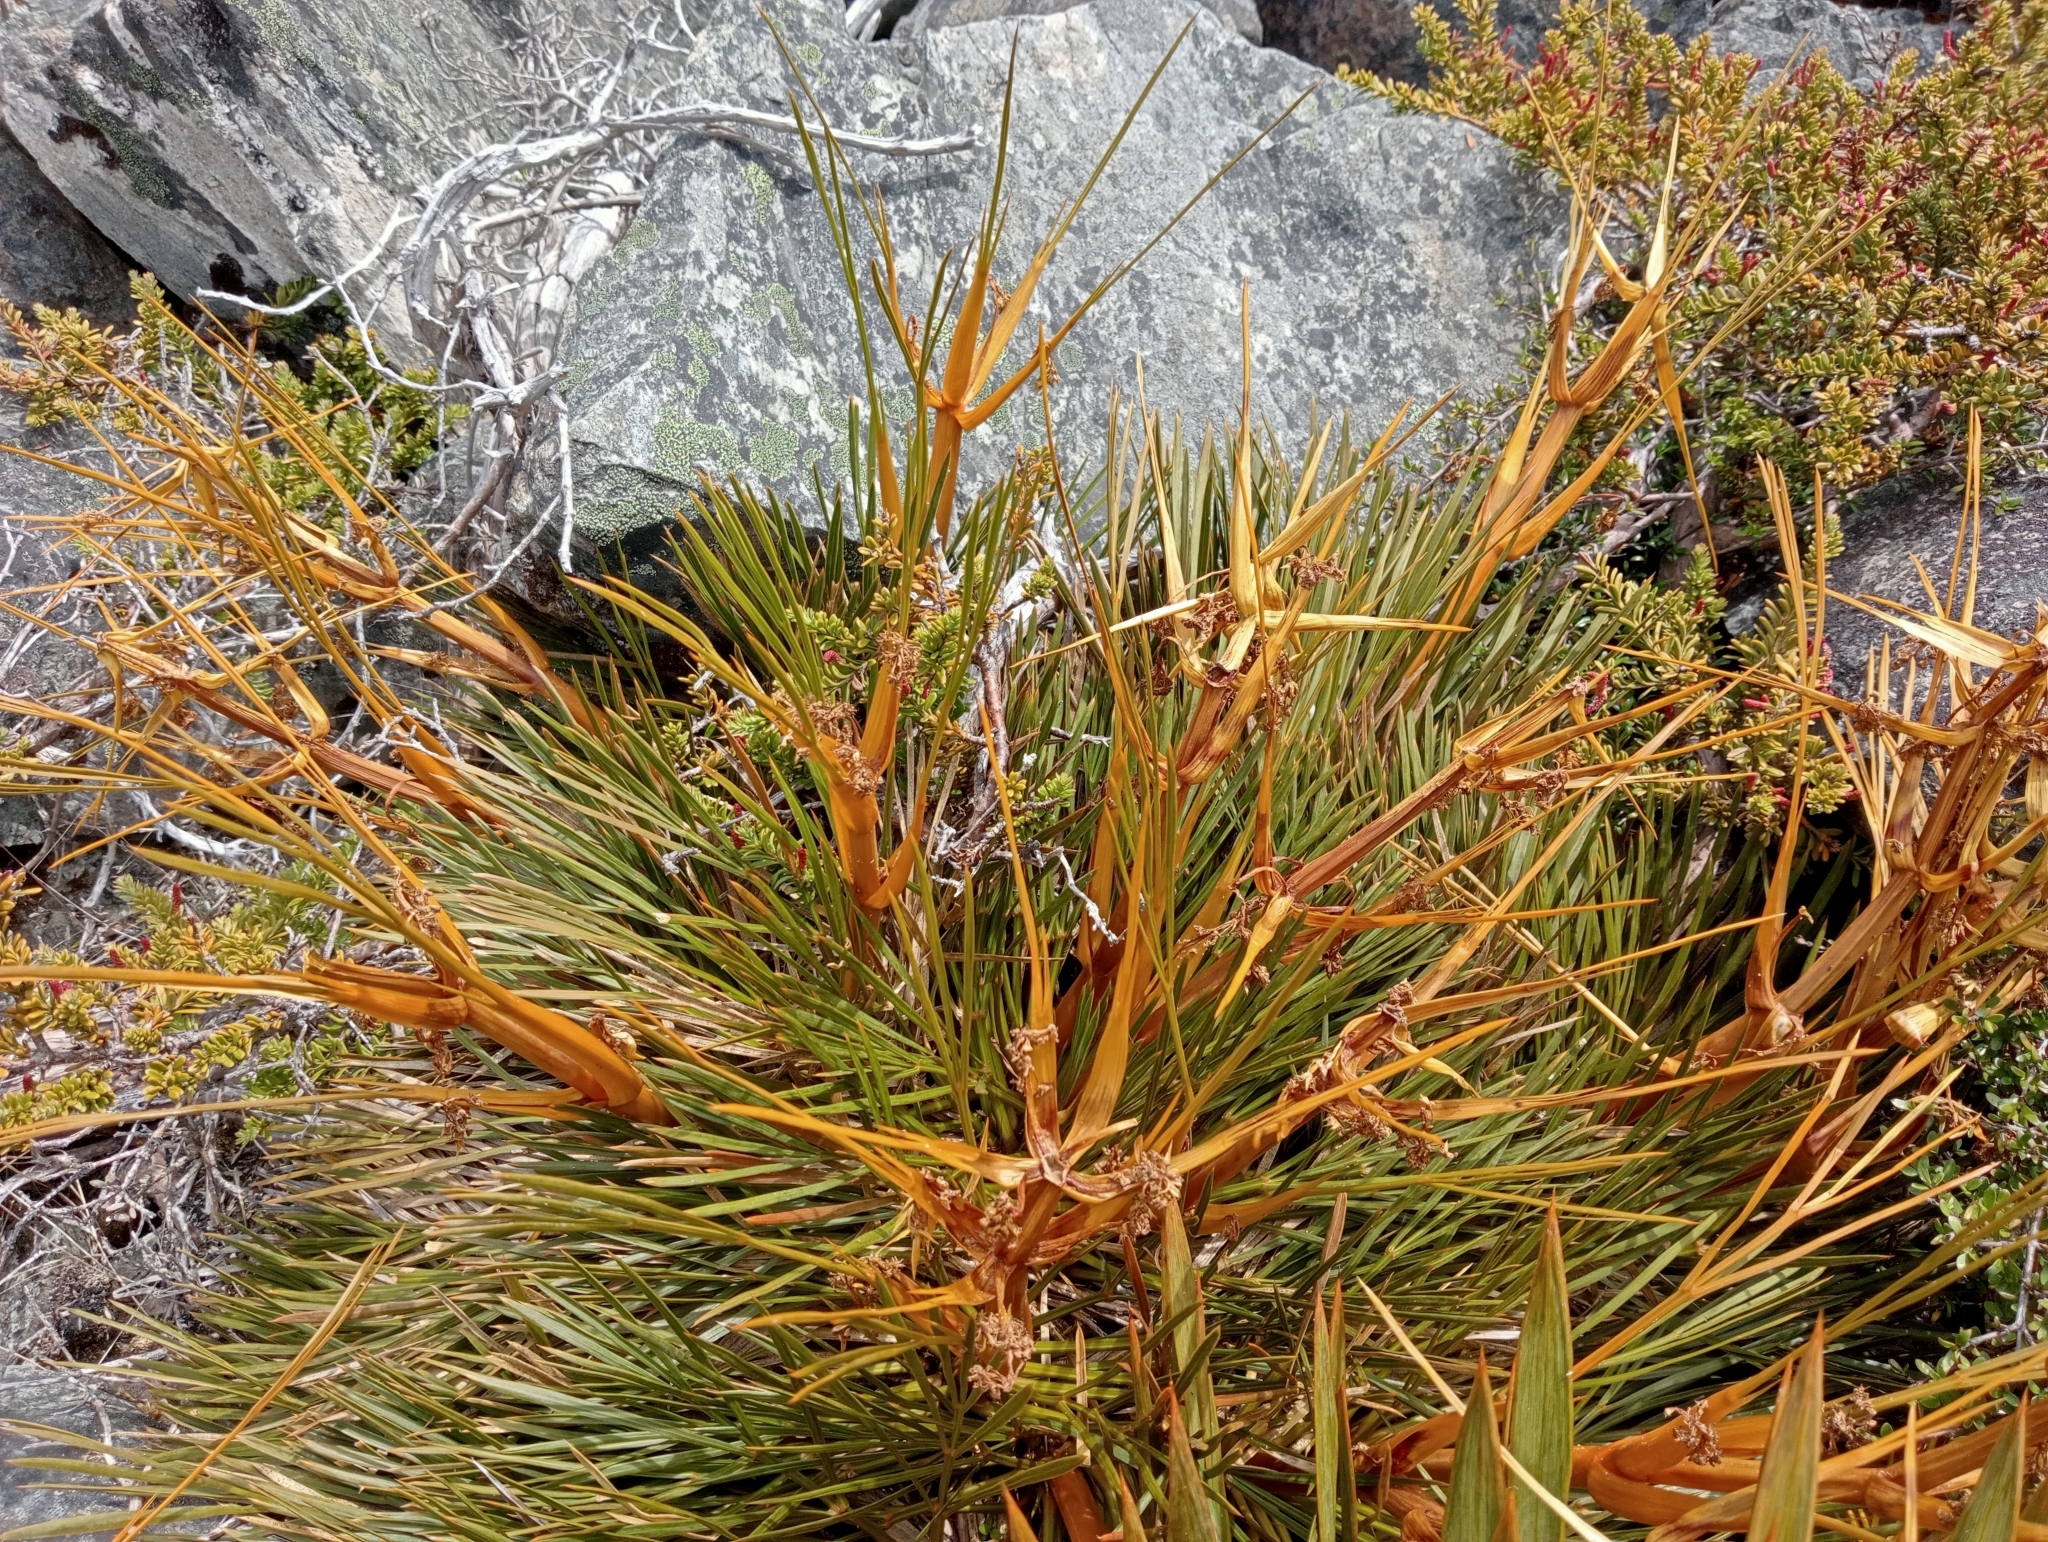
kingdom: Plantae
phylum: Tracheophyta
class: Magnoliopsida
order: Apiales
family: Apiaceae
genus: Aciphylla
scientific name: Aciphylla montana
